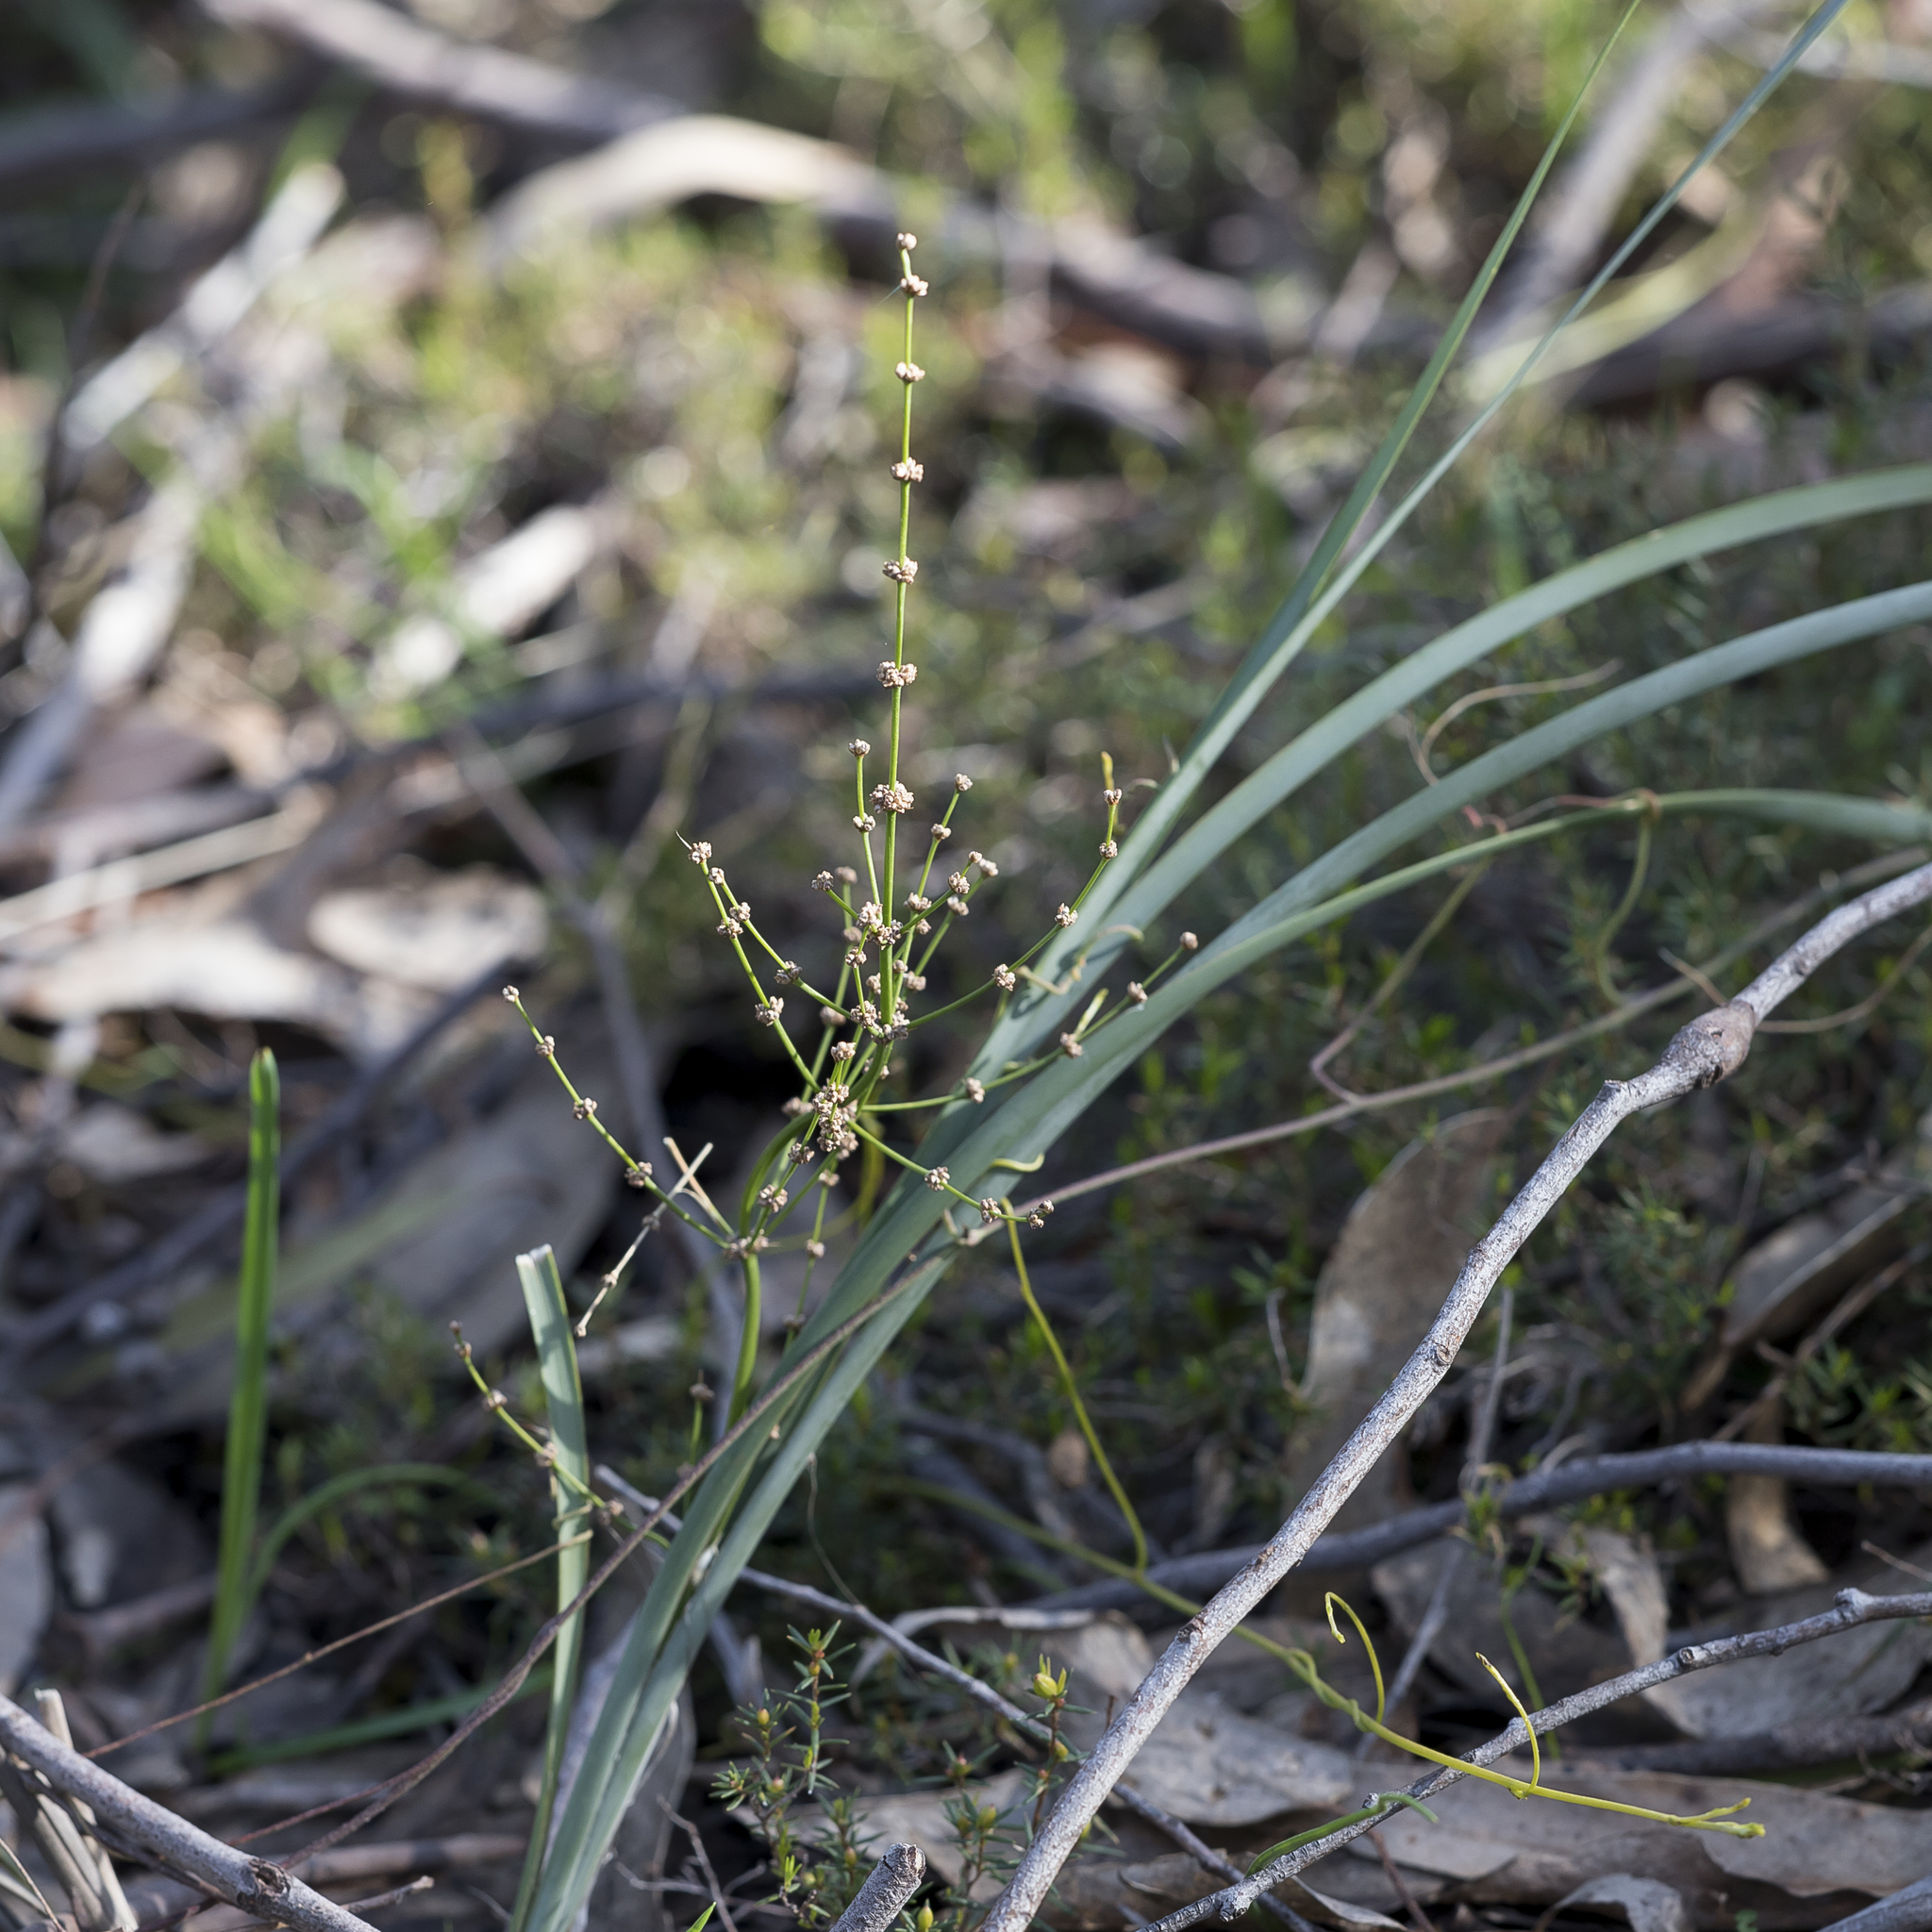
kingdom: Plantae
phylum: Tracheophyta
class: Liliopsida
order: Asparagales
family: Asparagaceae
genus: Lomandra
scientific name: Lomandra multiflora
